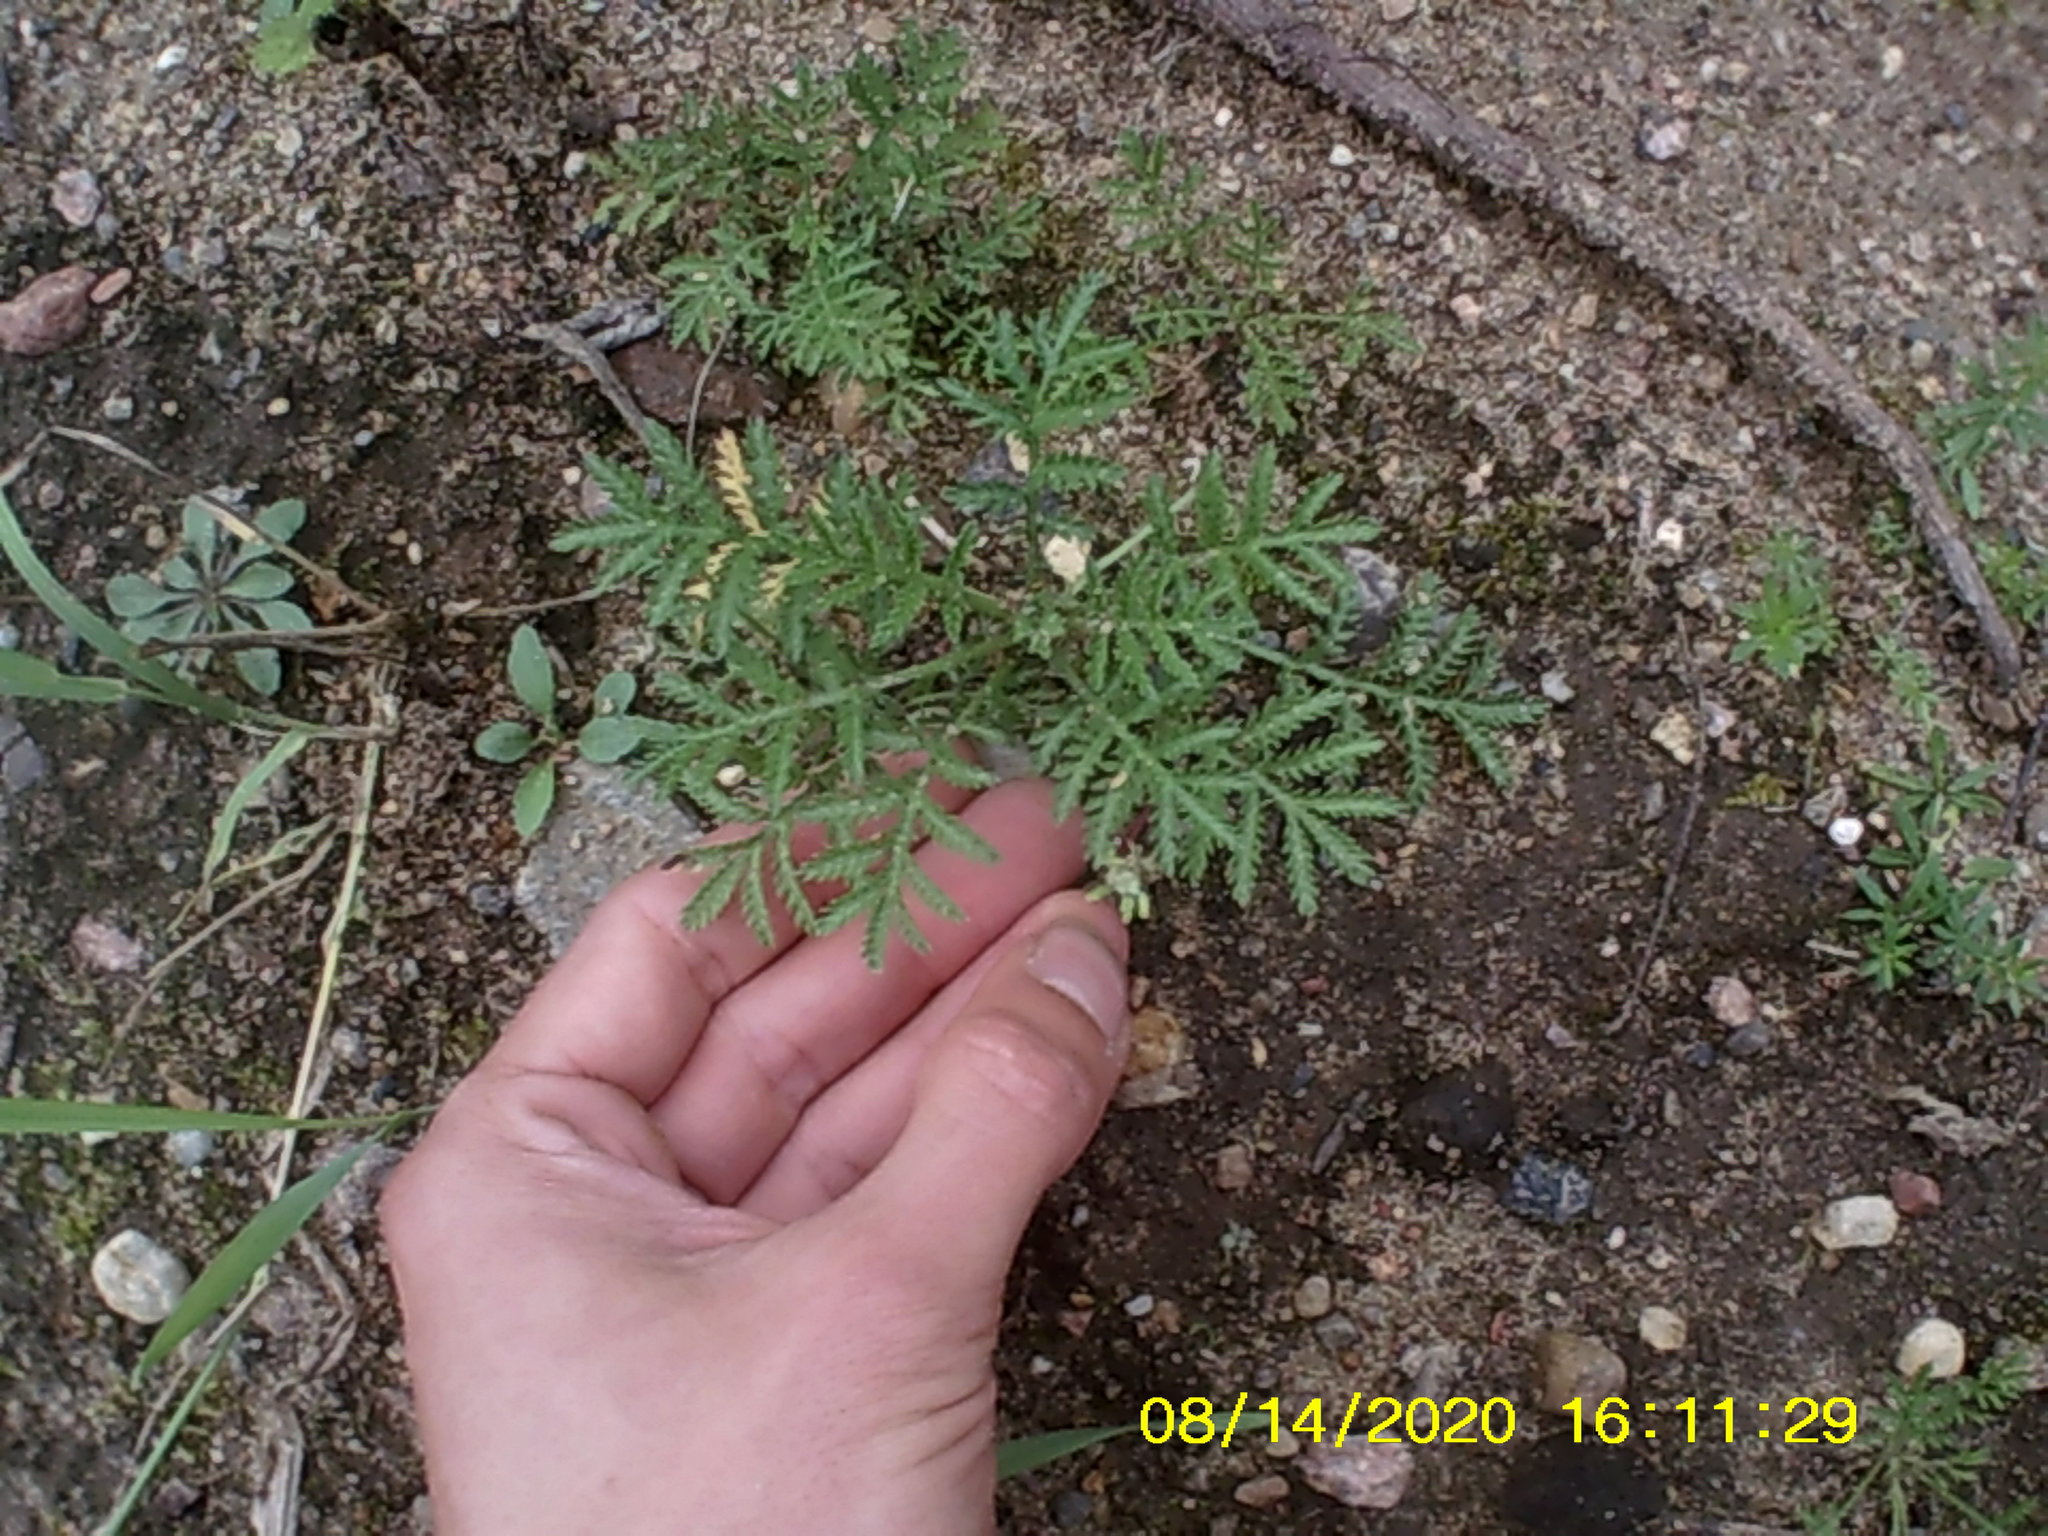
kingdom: Plantae
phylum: Tracheophyta
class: Magnoliopsida
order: Asterales
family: Asteraceae
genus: Cota
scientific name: Cota tinctoria
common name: Golden chamomile
